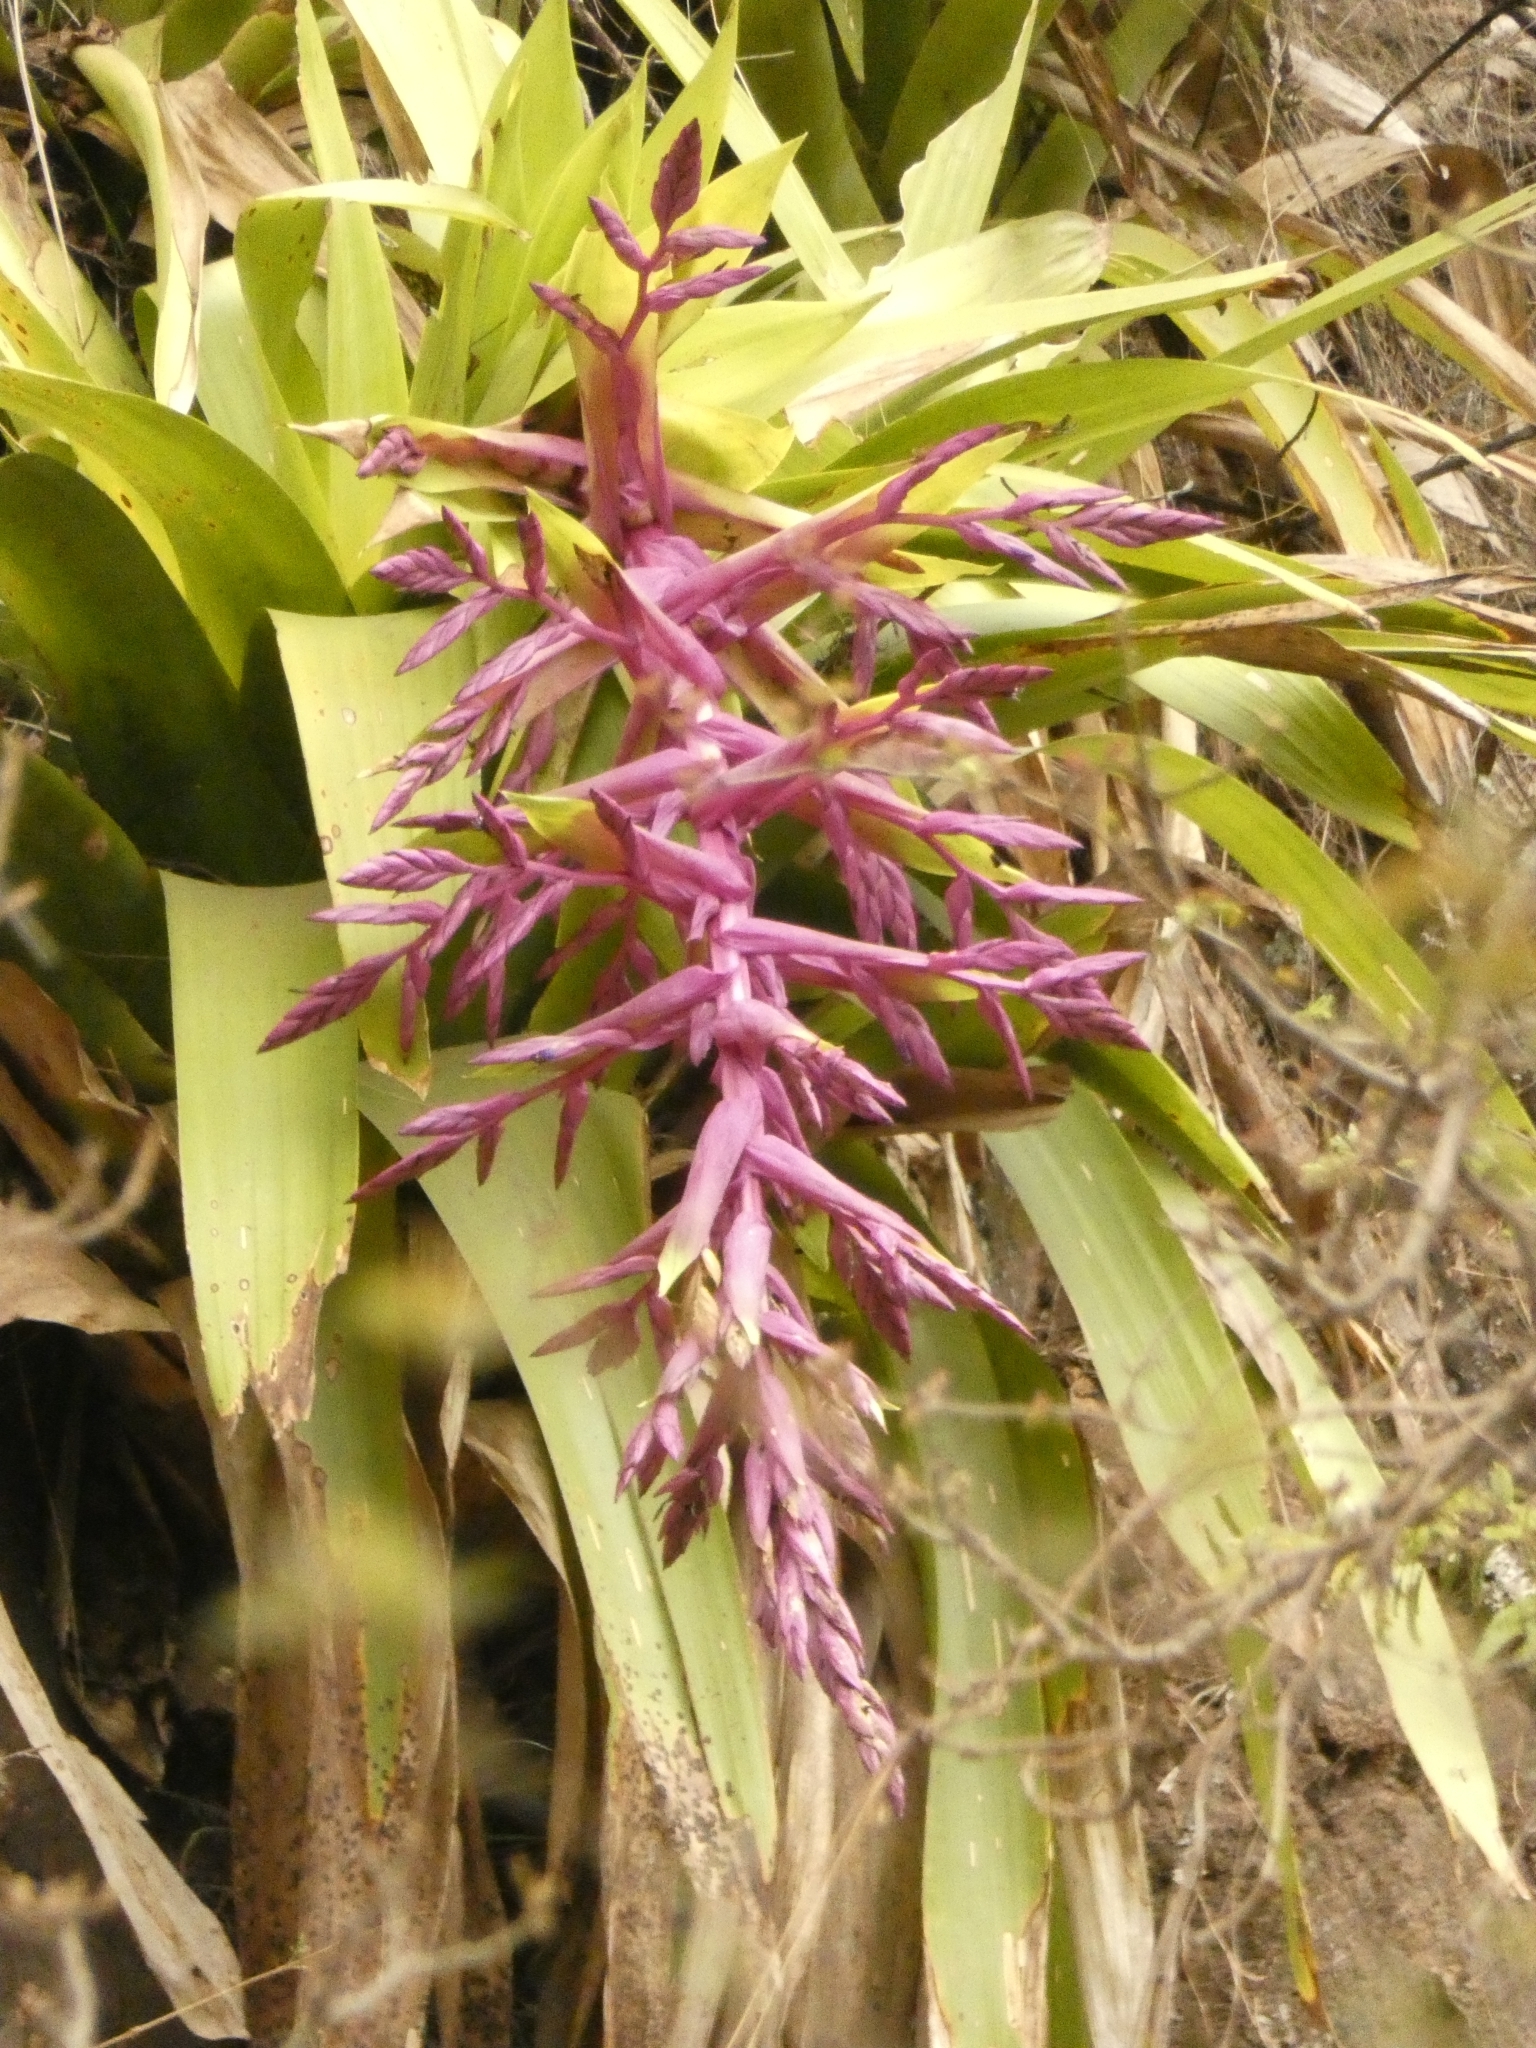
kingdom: Plantae
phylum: Tracheophyta
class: Liliopsida
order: Poales
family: Bromeliaceae
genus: Tillandsia
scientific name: Tillandsia australis
